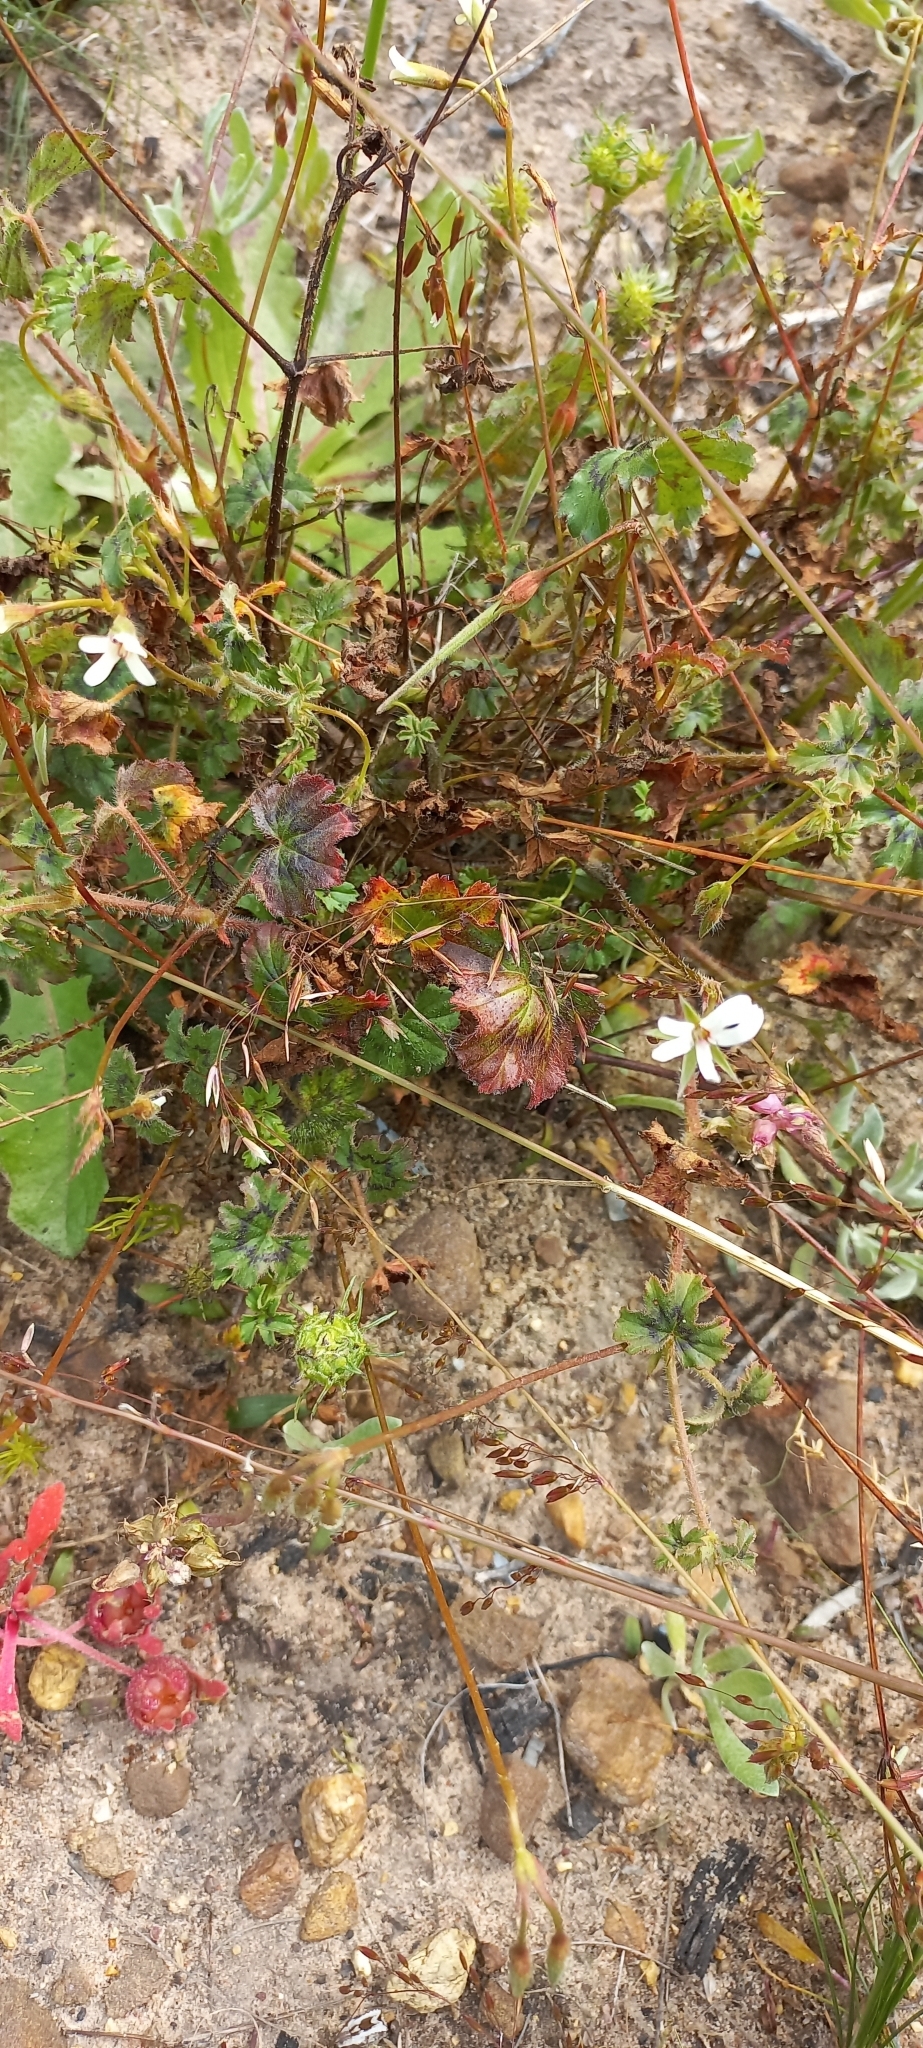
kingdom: Plantae
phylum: Tracheophyta
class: Magnoliopsida
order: Geraniales
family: Geraniaceae
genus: Pelargonium
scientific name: Pelargonium elongatum
